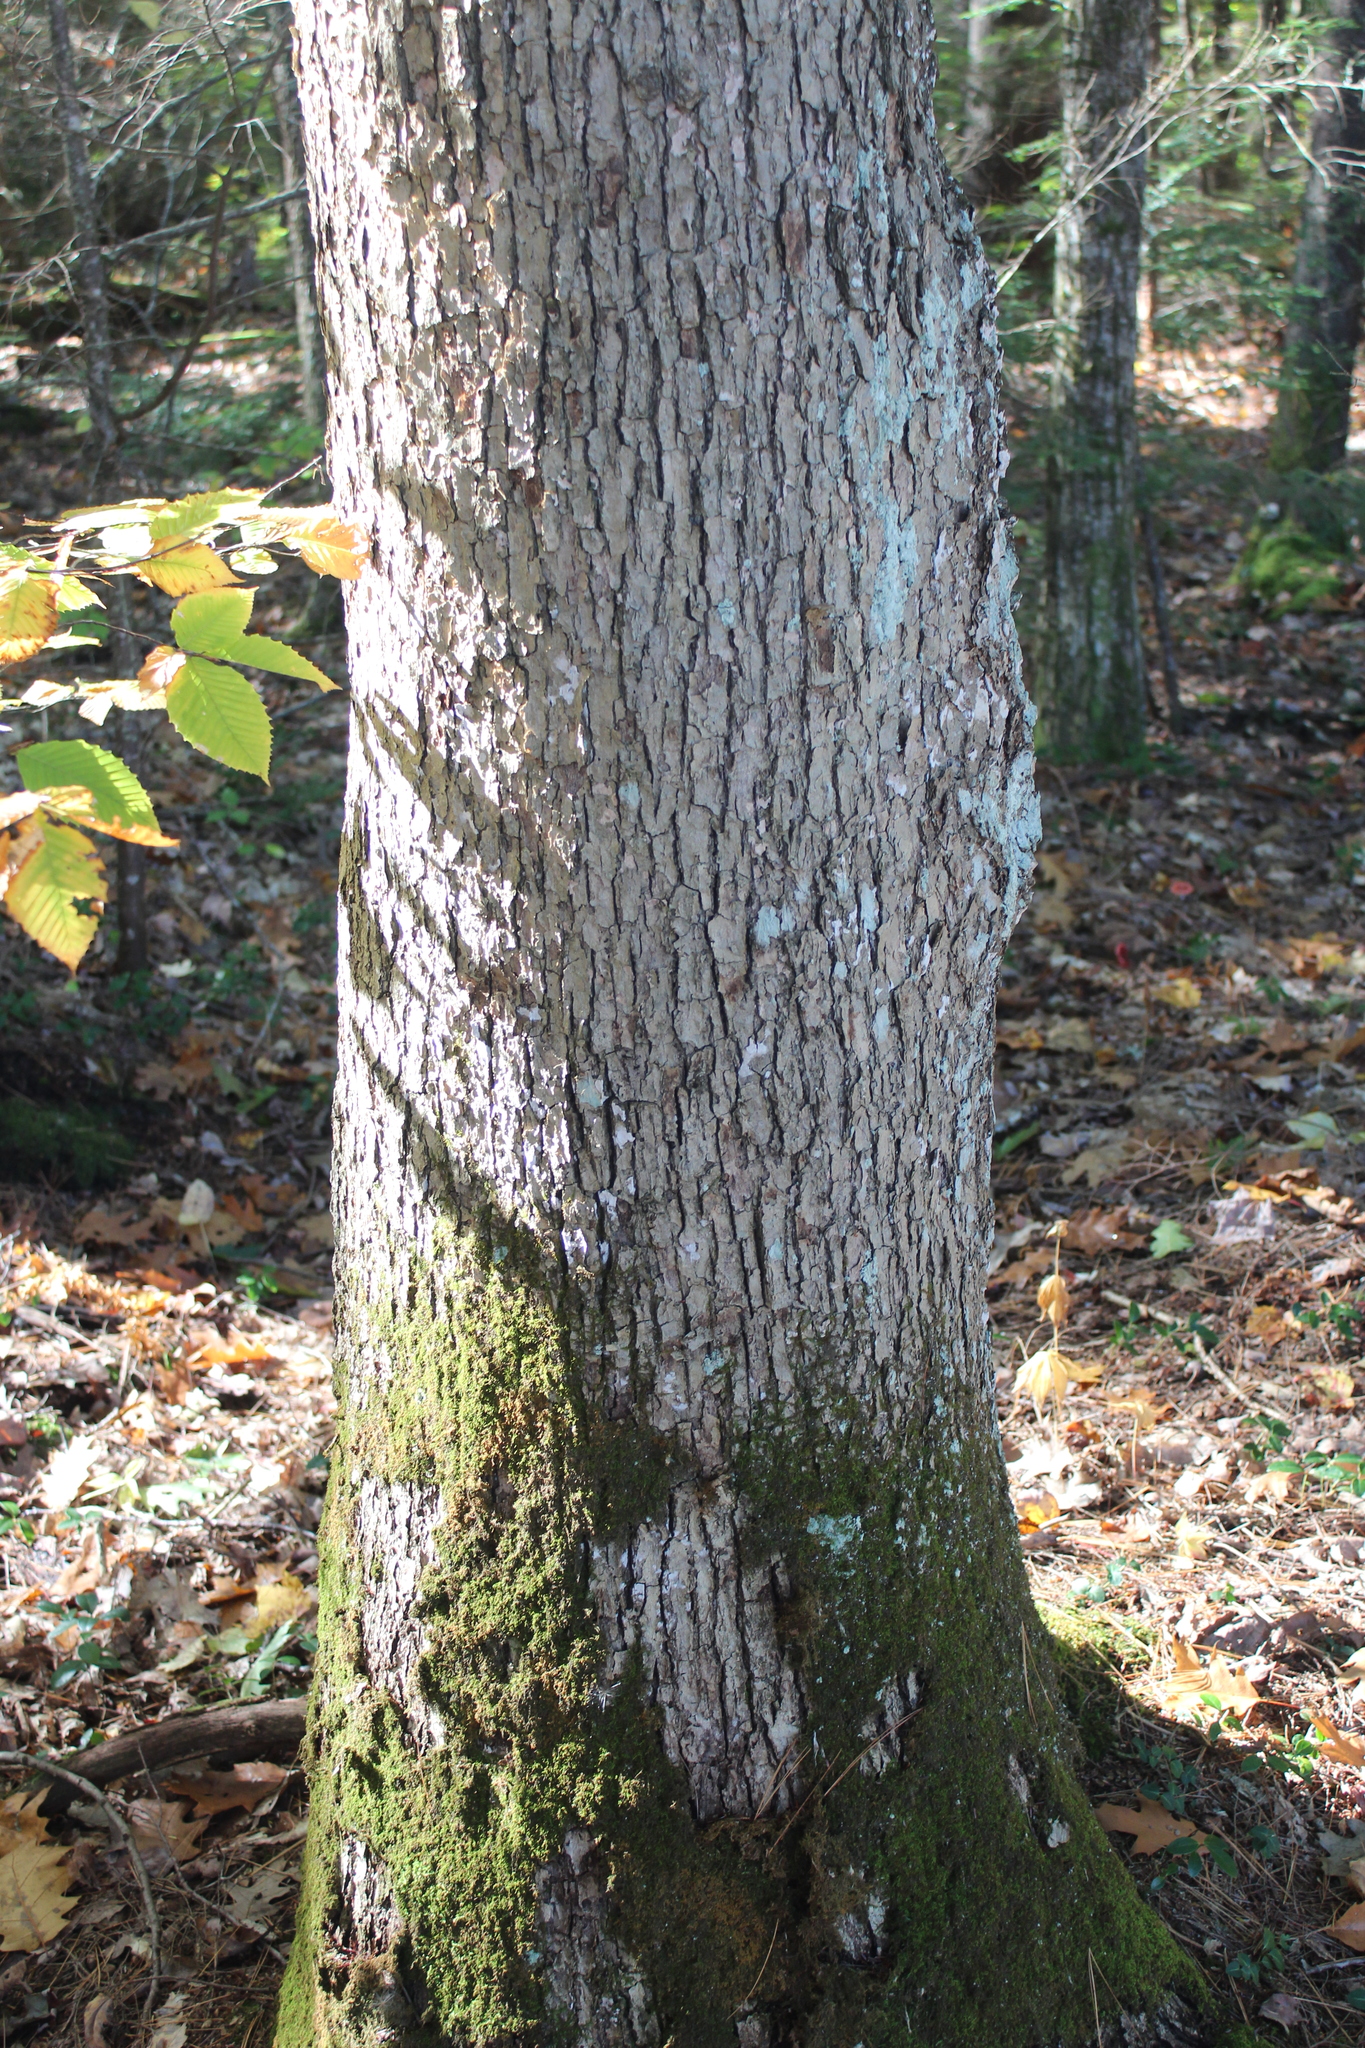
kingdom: Plantae
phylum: Tracheophyta
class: Magnoliopsida
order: Fagales
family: Fagaceae
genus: Quercus
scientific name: Quercus alba
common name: White oak
